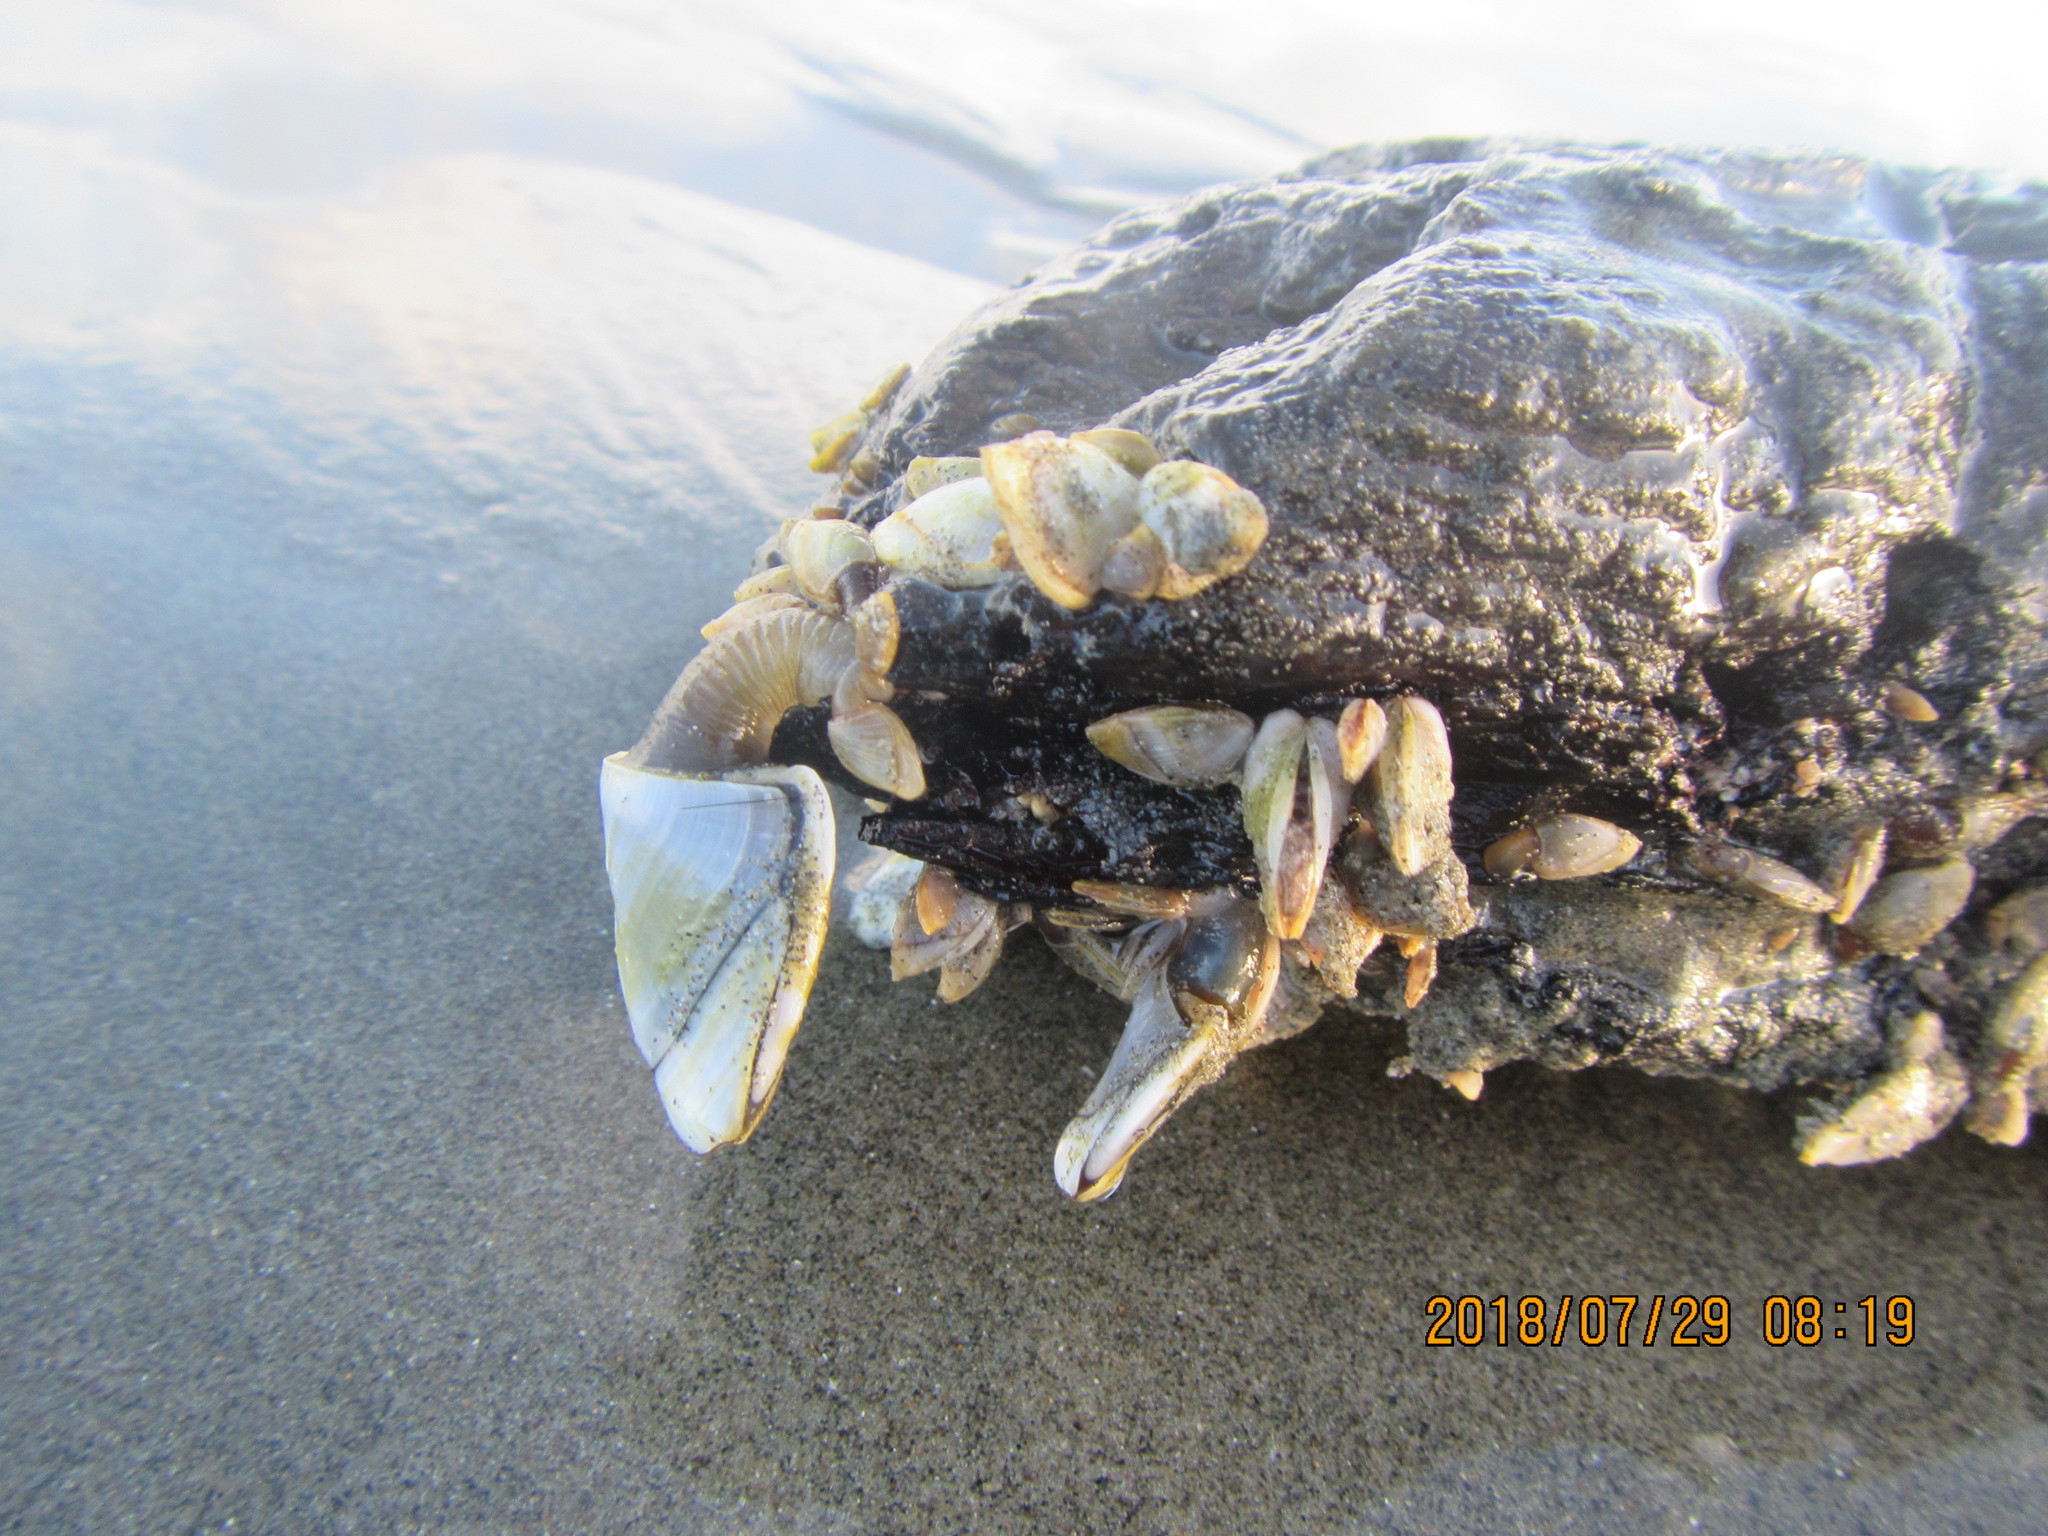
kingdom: Animalia
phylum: Arthropoda
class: Maxillopoda
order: Pedunculata
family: Lepadidae
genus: Lepas
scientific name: Lepas australis
